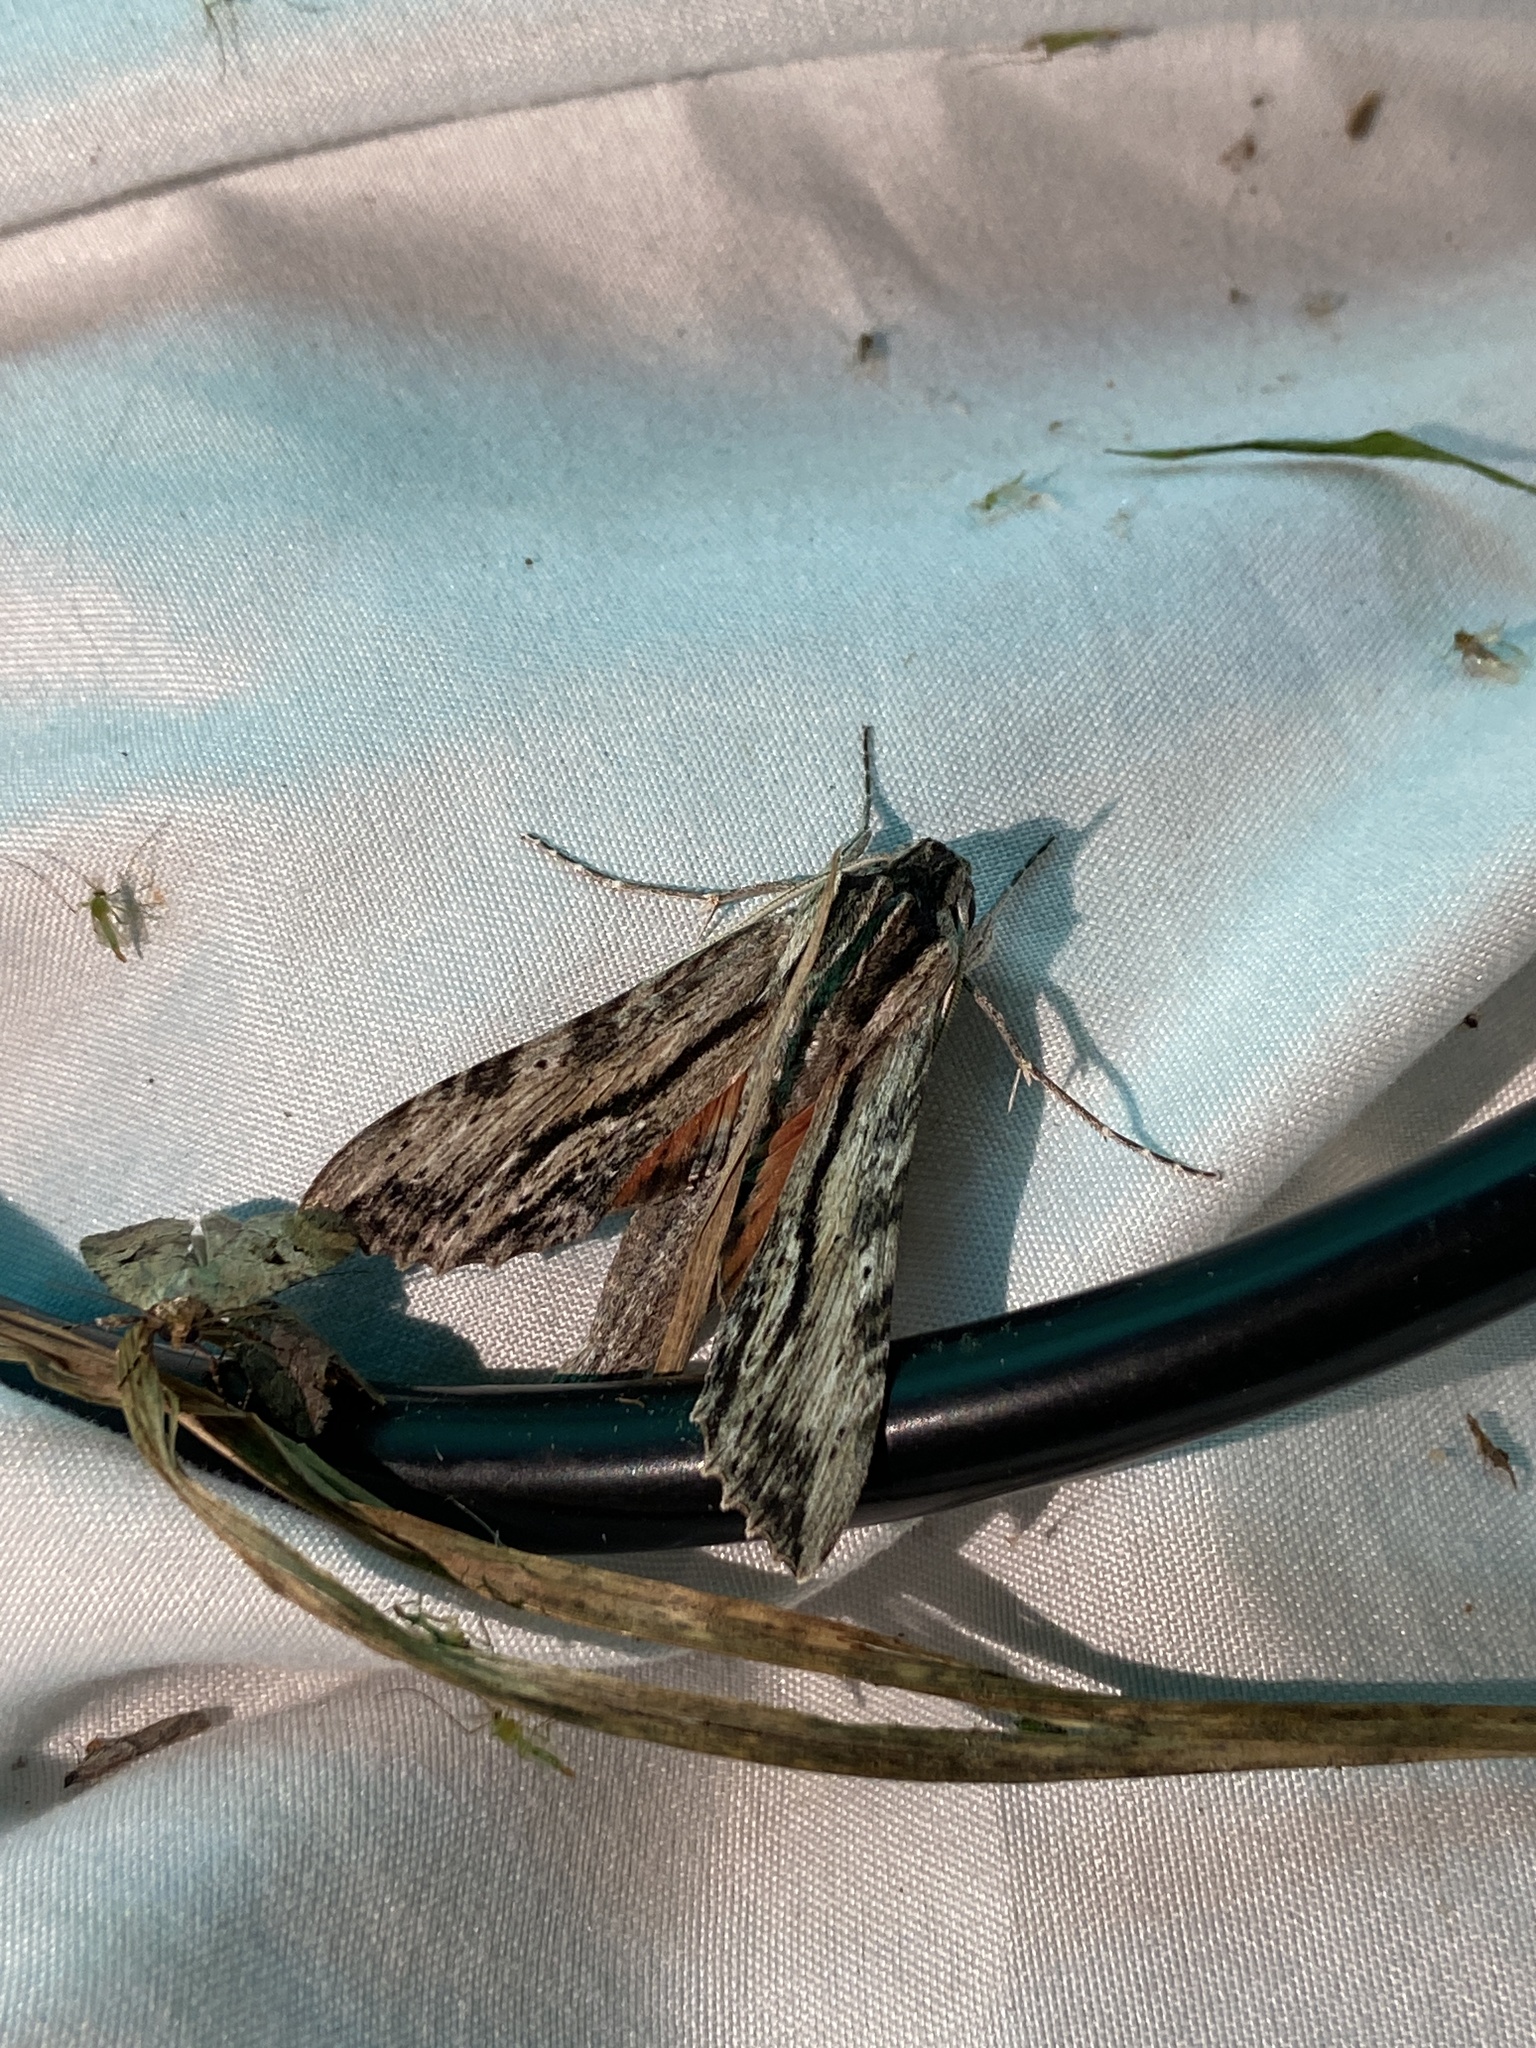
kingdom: Animalia
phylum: Arthropoda
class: Insecta
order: Lepidoptera
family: Sphingidae
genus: Erinnyis
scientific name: Erinnyis obscura
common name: Obscure sphinx
